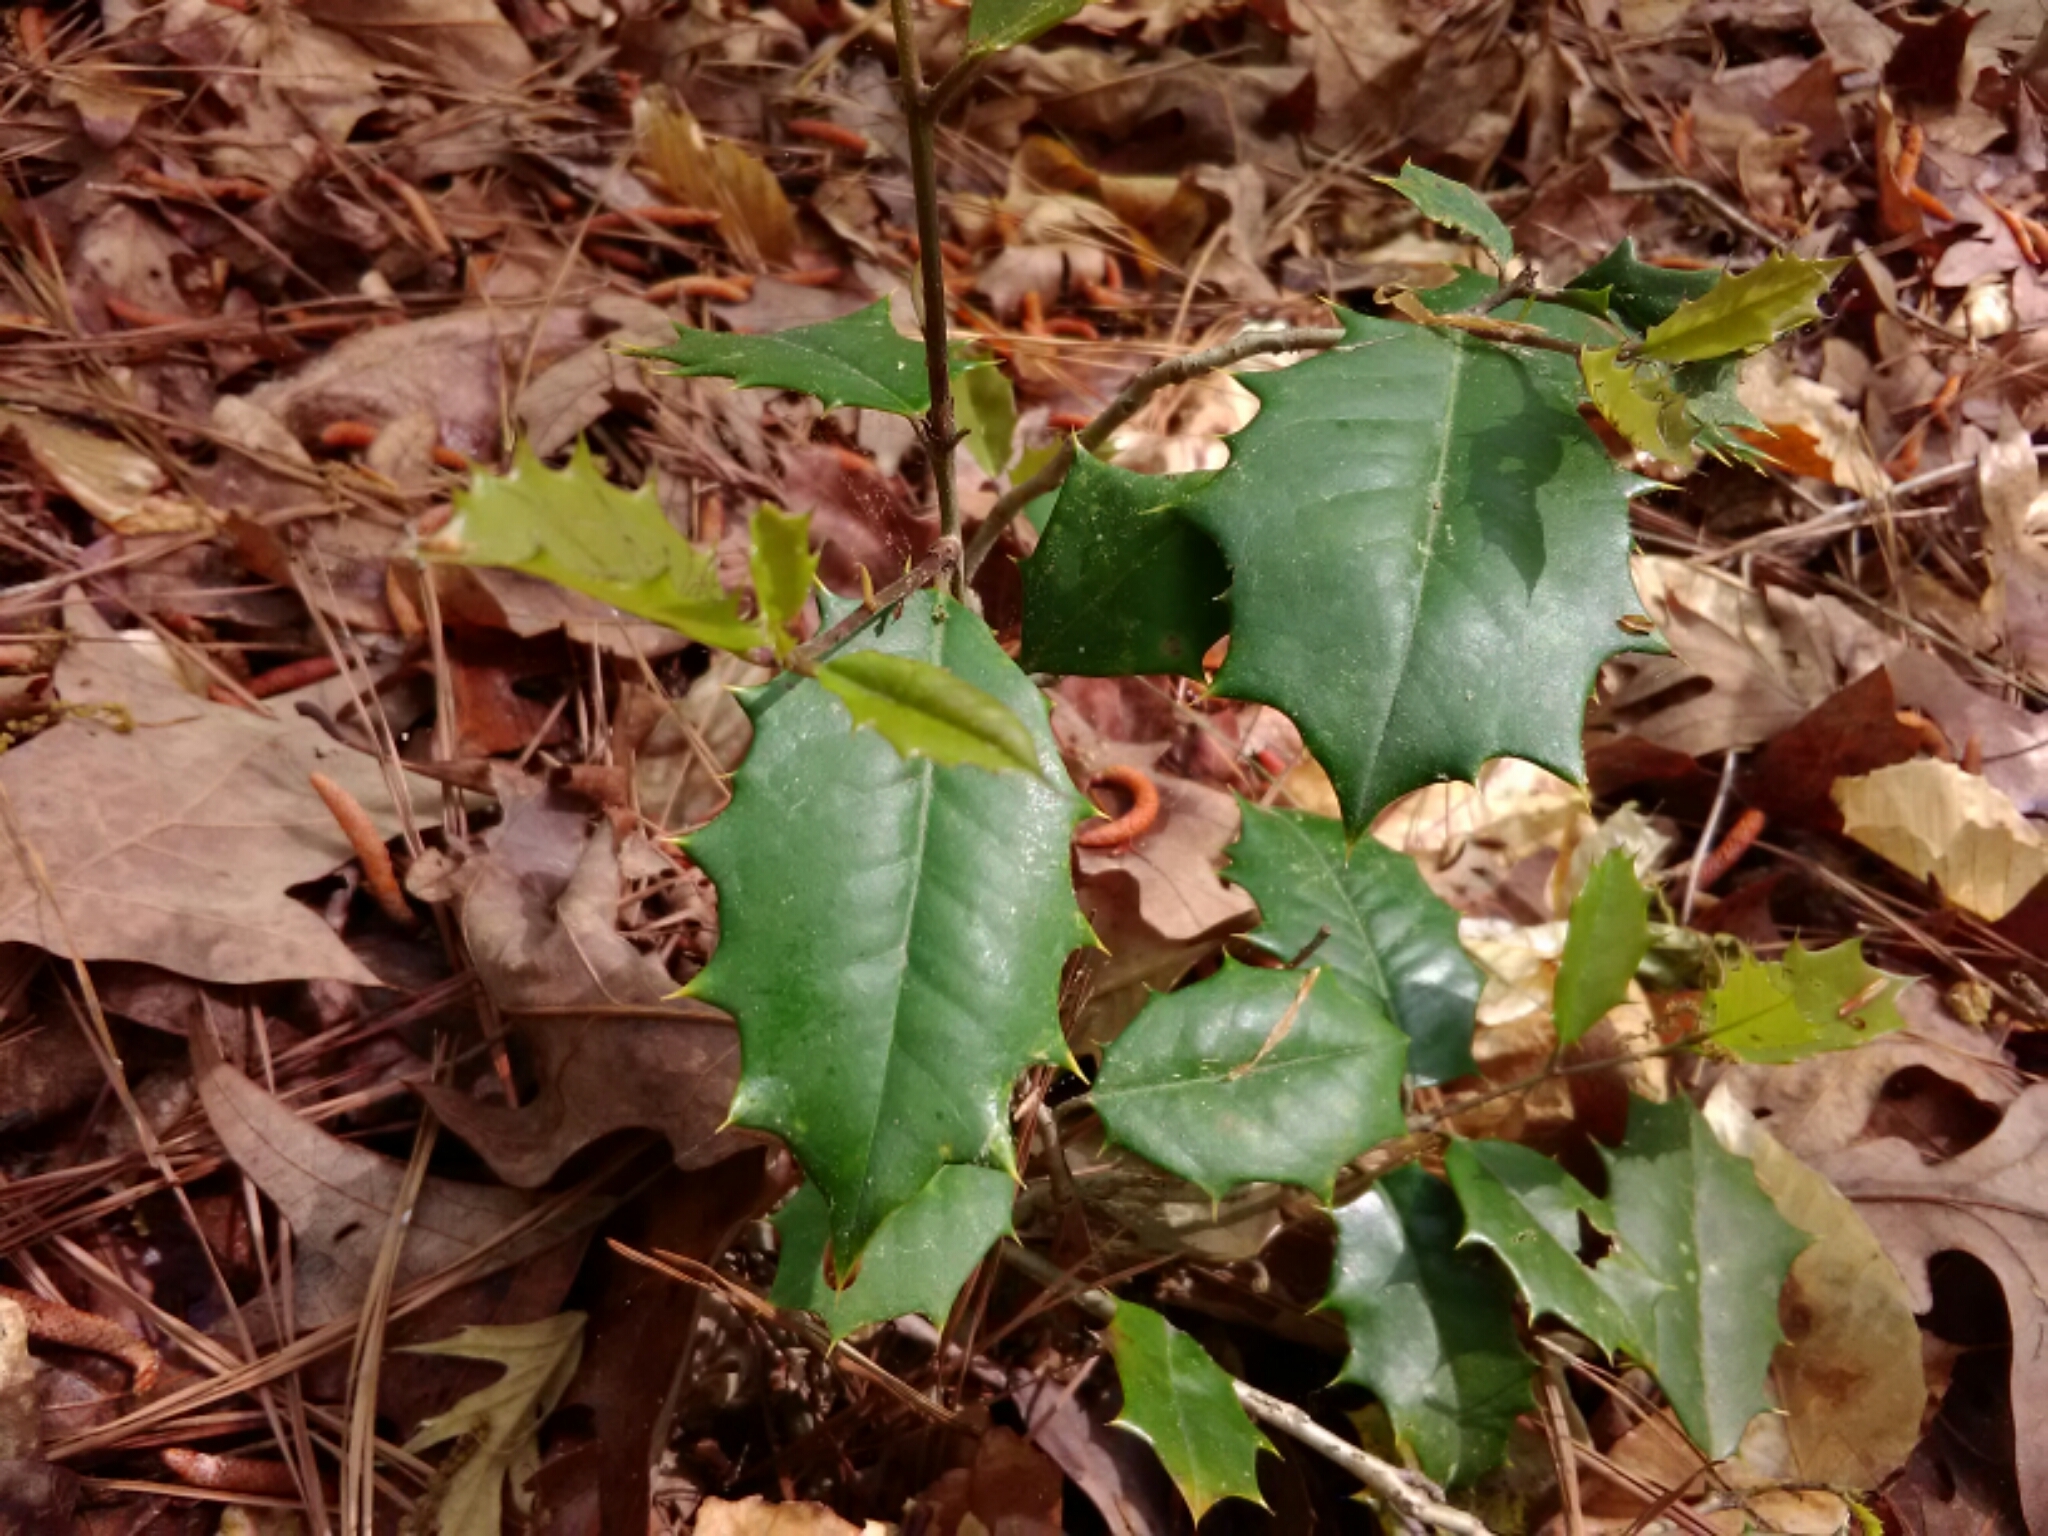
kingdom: Plantae
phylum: Tracheophyta
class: Magnoliopsida
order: Aquifoliales
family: Aquifoliaceae
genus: Ilex
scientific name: Ilex opaca
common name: American holly
